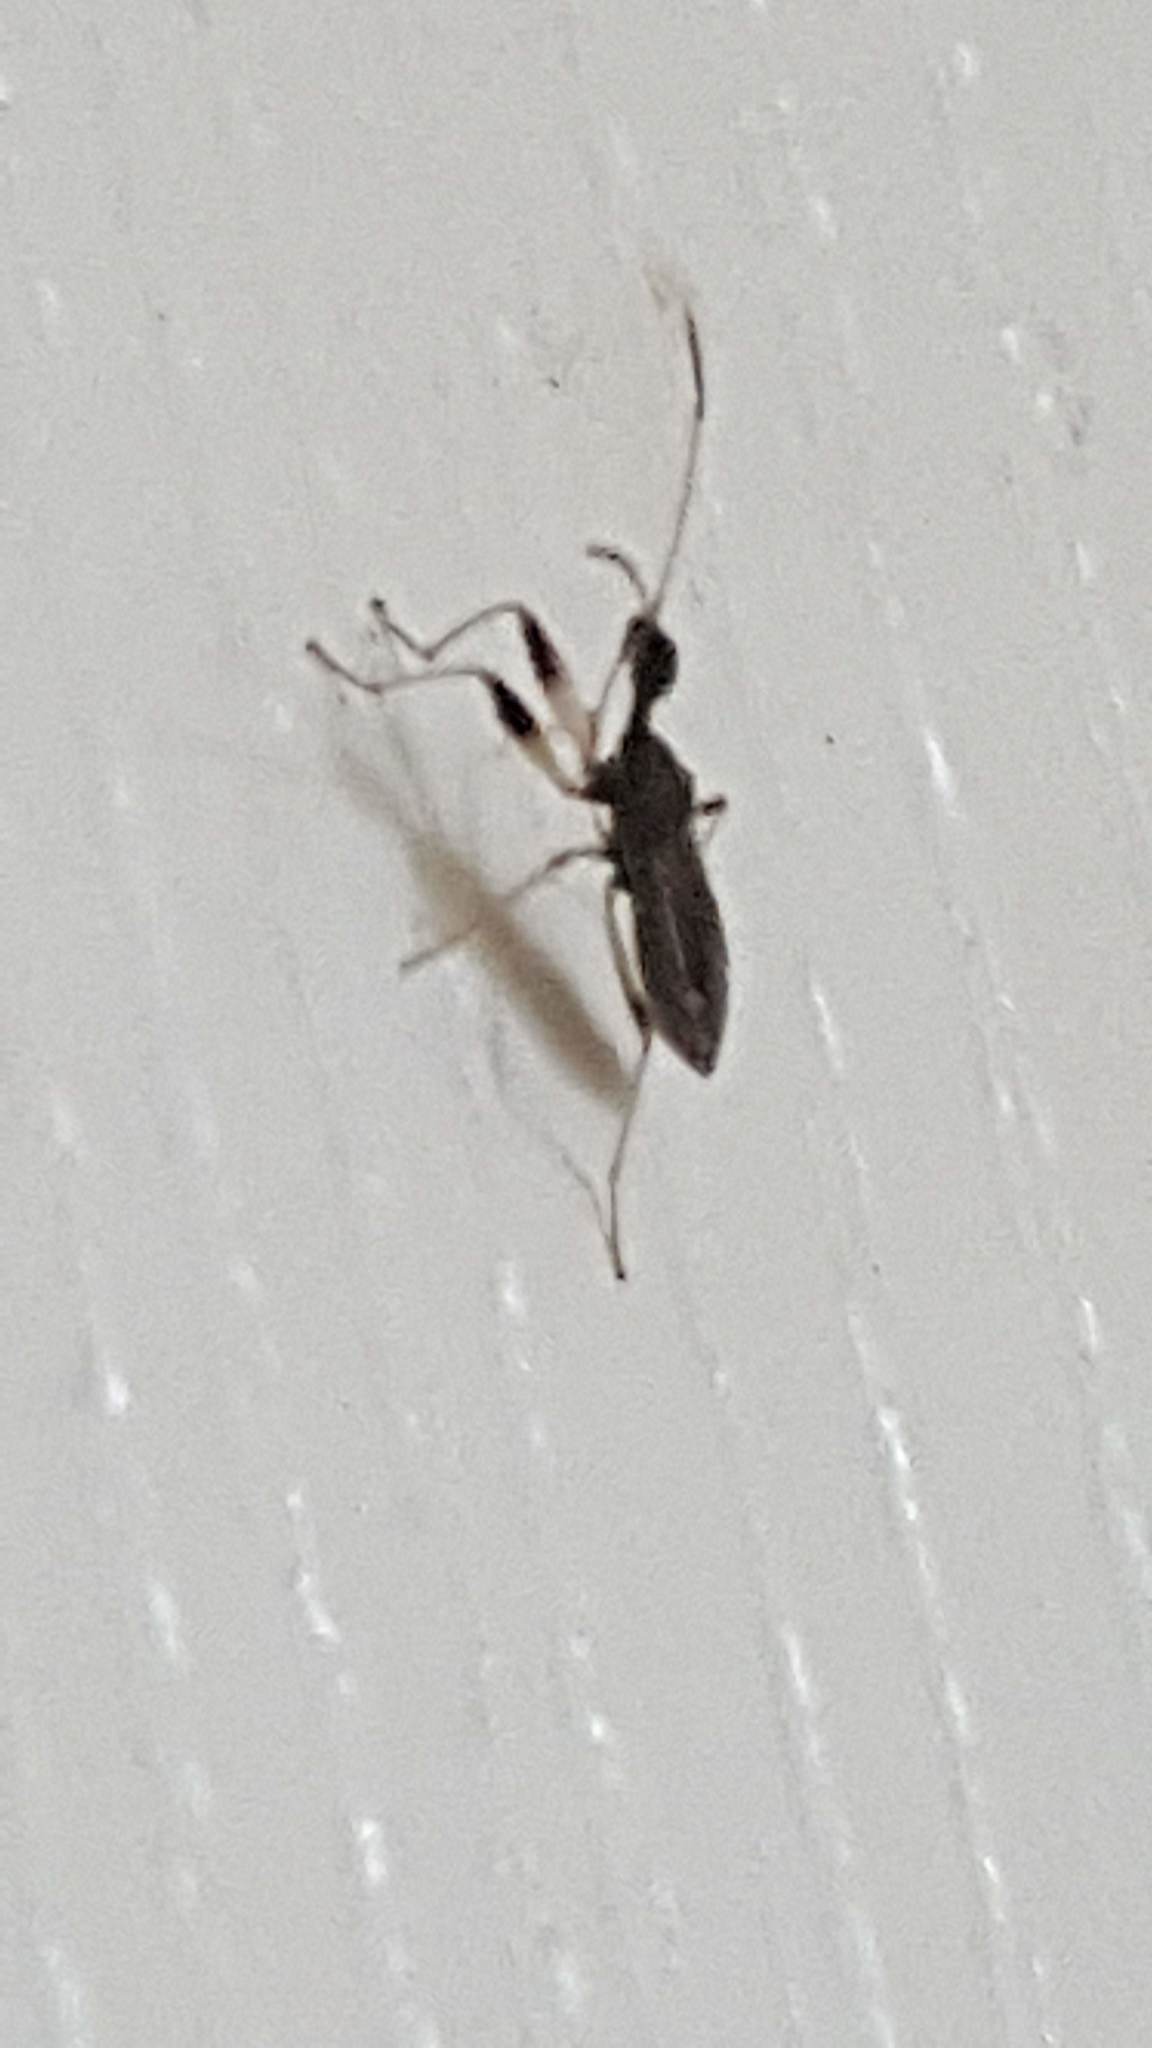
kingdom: Animalia
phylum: Arthropoda
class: Insecta
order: Hemiptera
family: Rhyparochromidae
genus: Myodocha
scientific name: Myodocha serripes
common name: Long-necked seed bug
